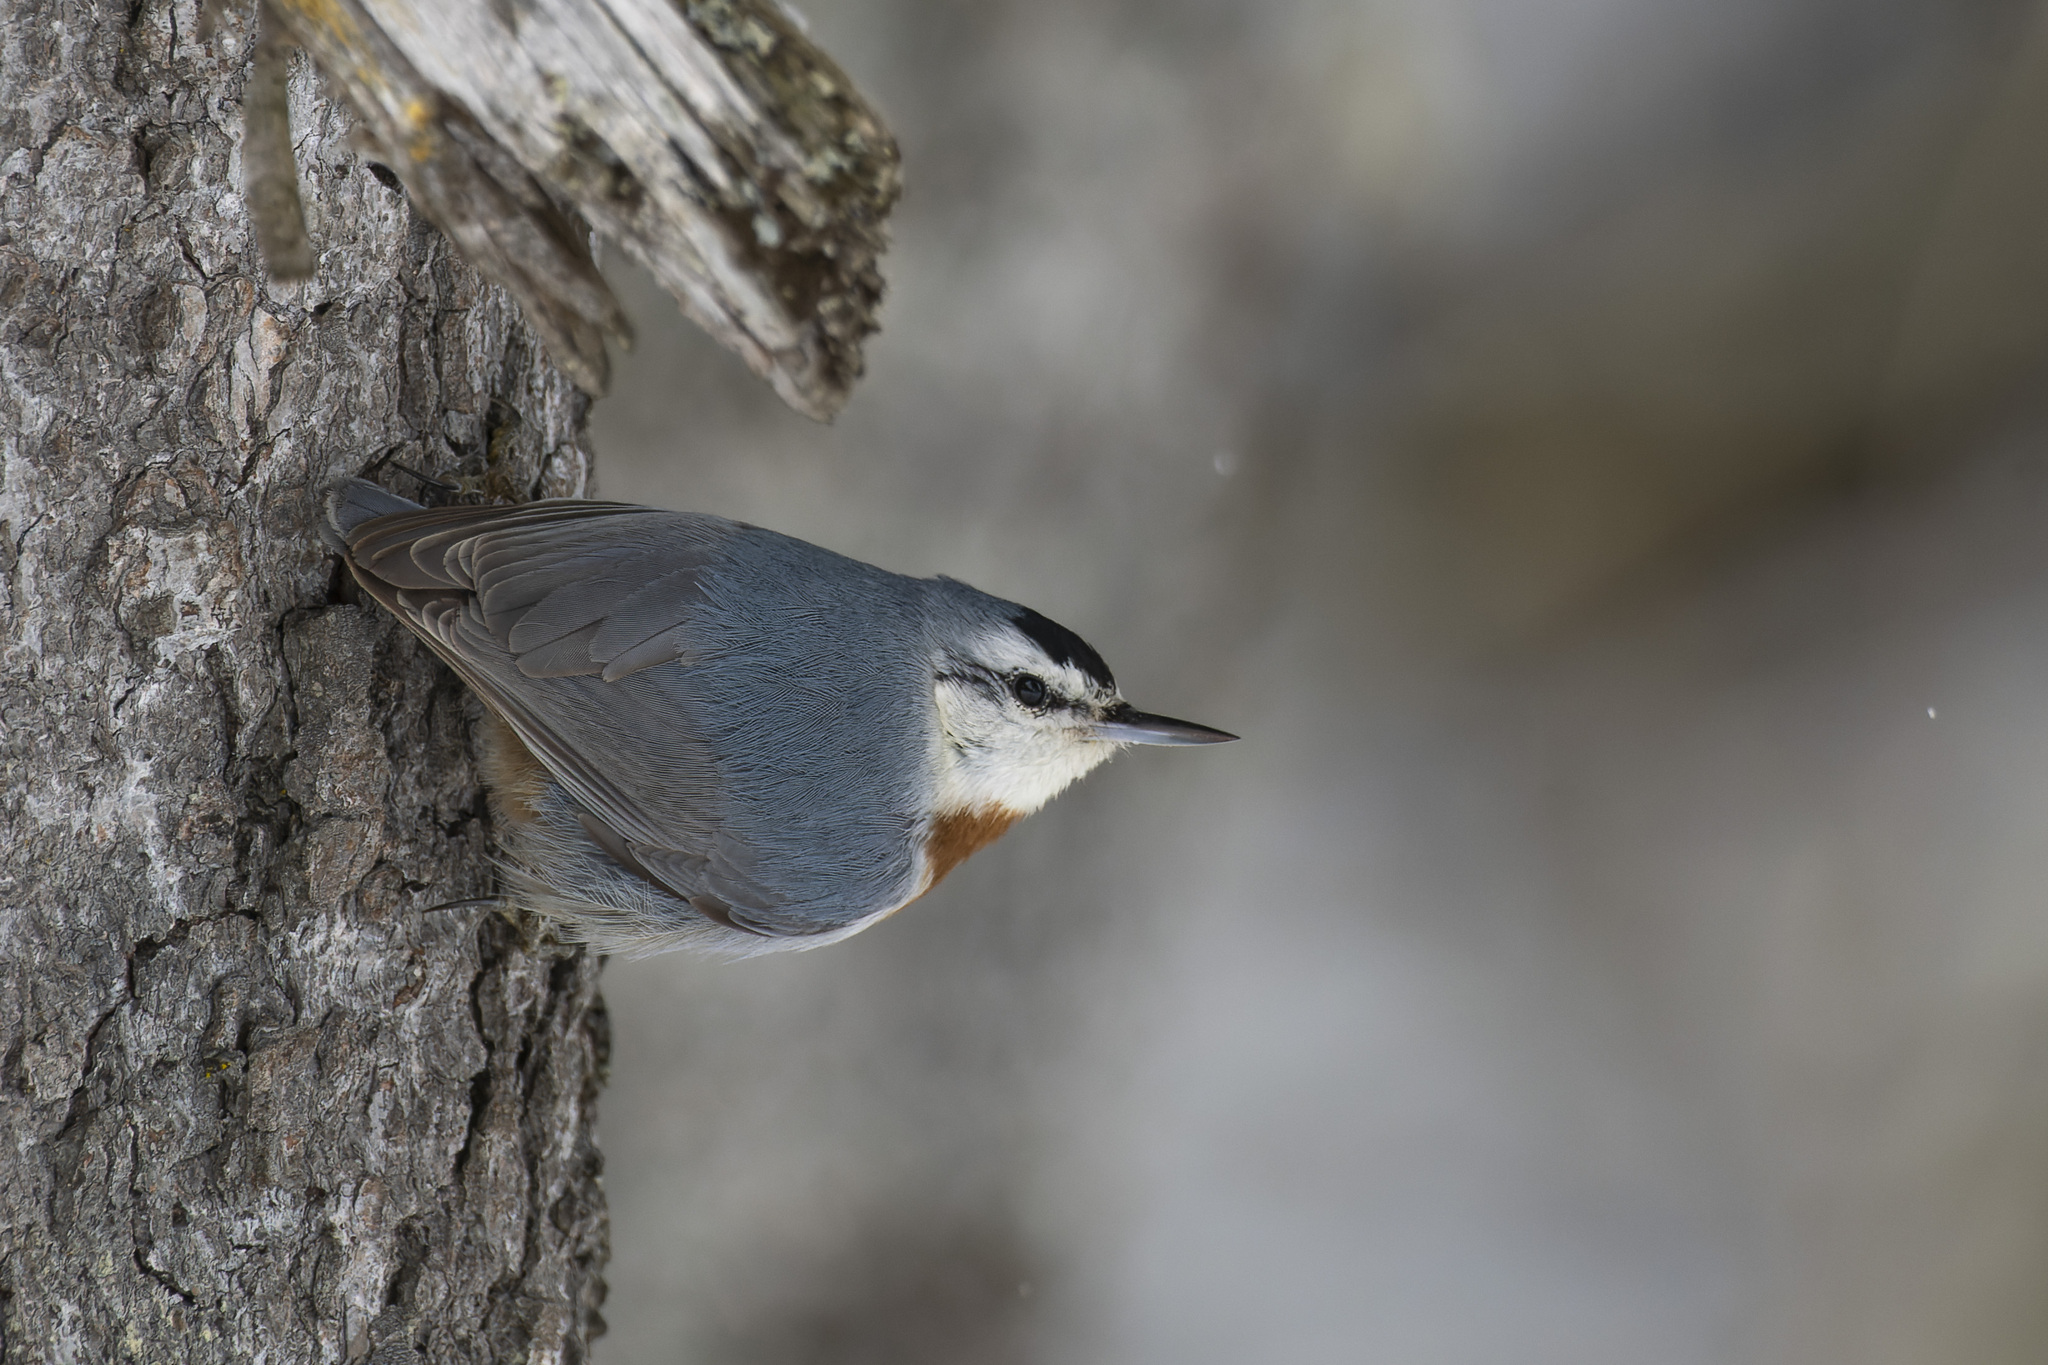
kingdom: Animalia
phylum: Chordata
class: Aves
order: Passeriformes
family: Sittidae
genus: Sitta
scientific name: Sitta krueperi
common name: Krüper's nuthatch
